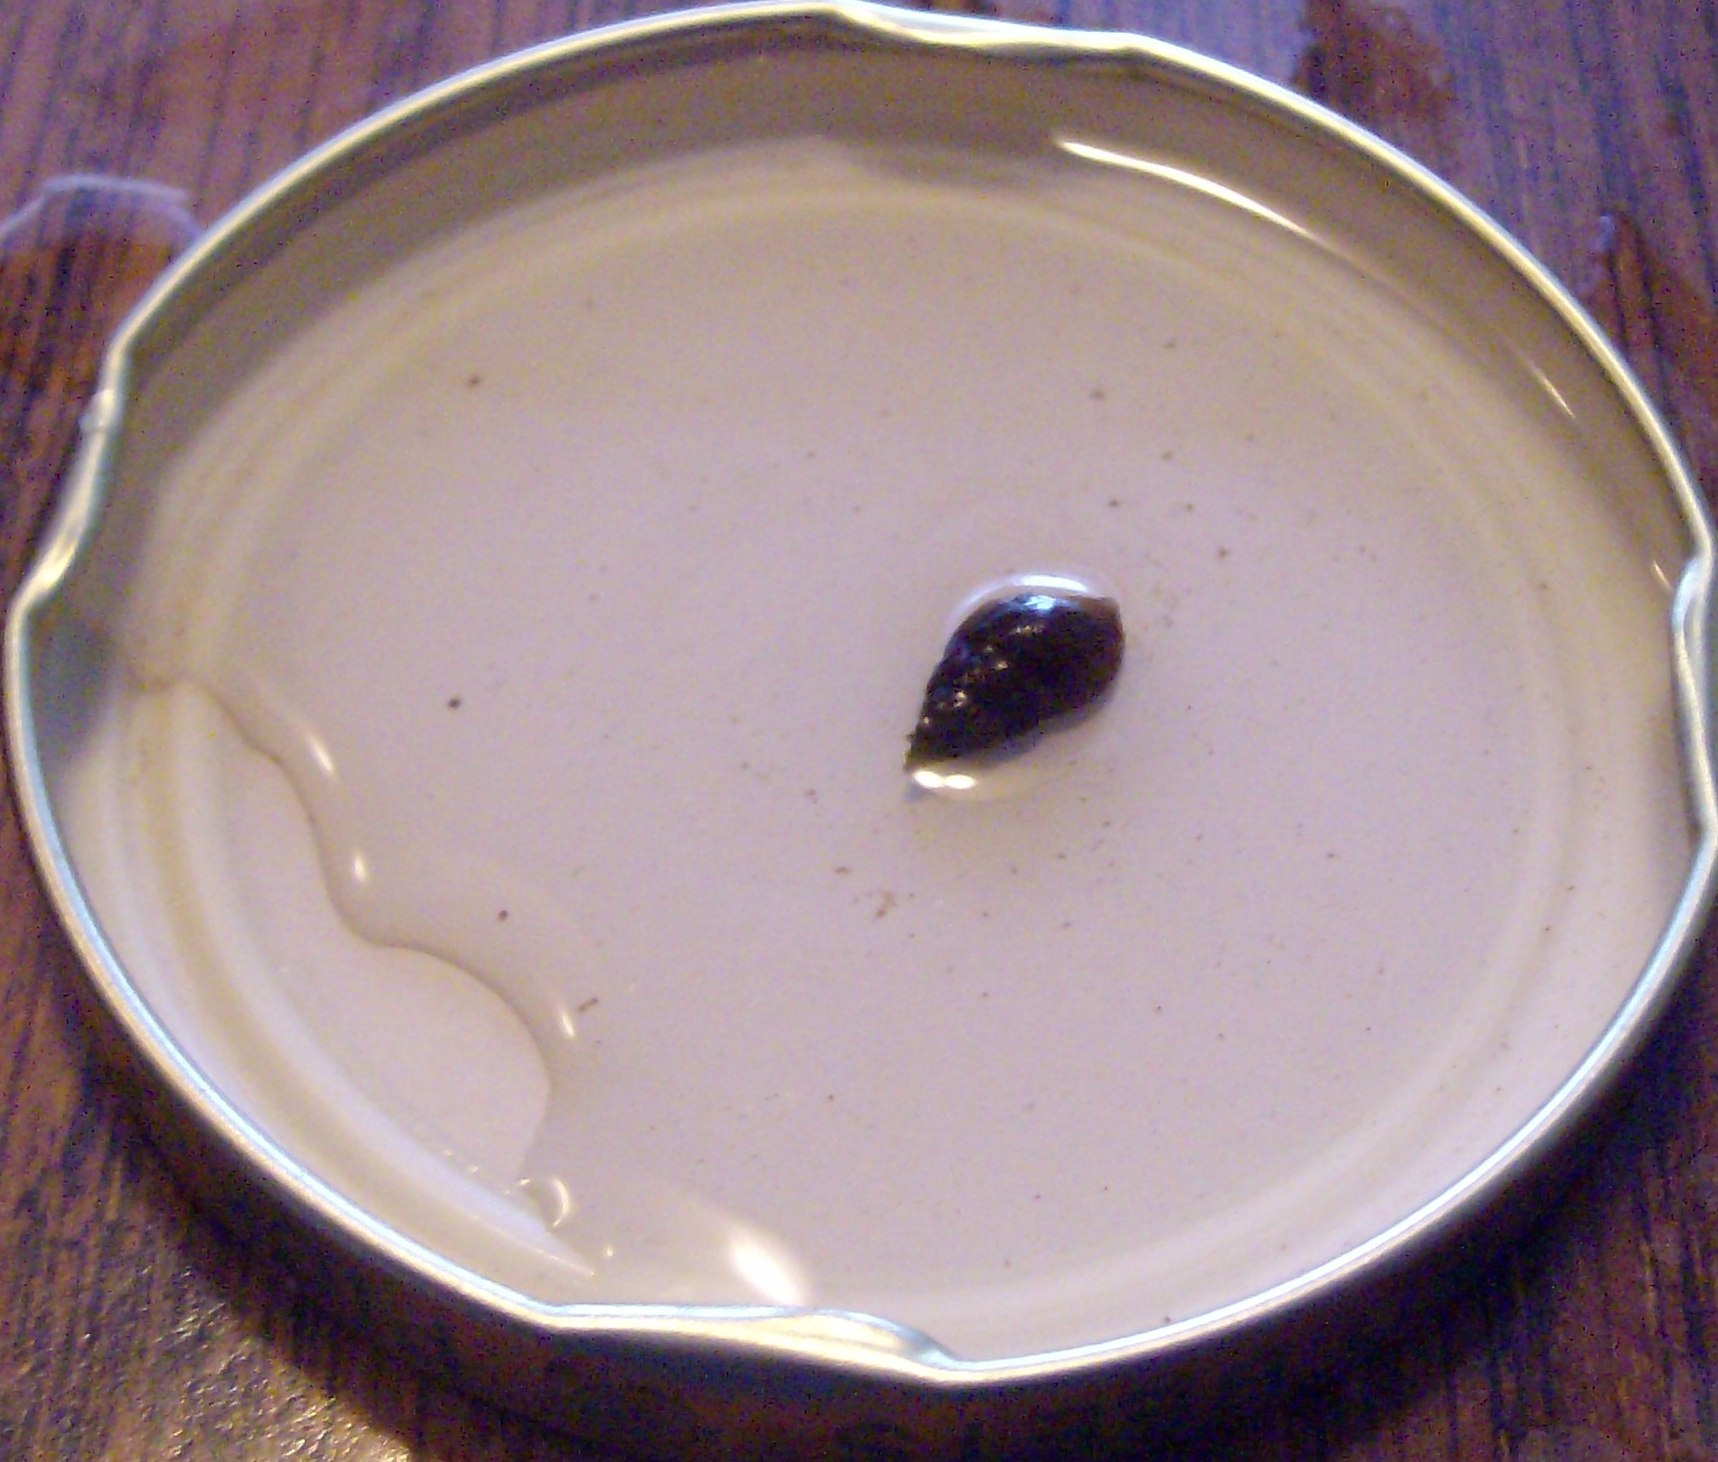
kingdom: Animalia
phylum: Mollusca
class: Gastropoda
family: Pleuroceridae
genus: Elimia
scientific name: Elimia livescens
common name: Liver elimia
